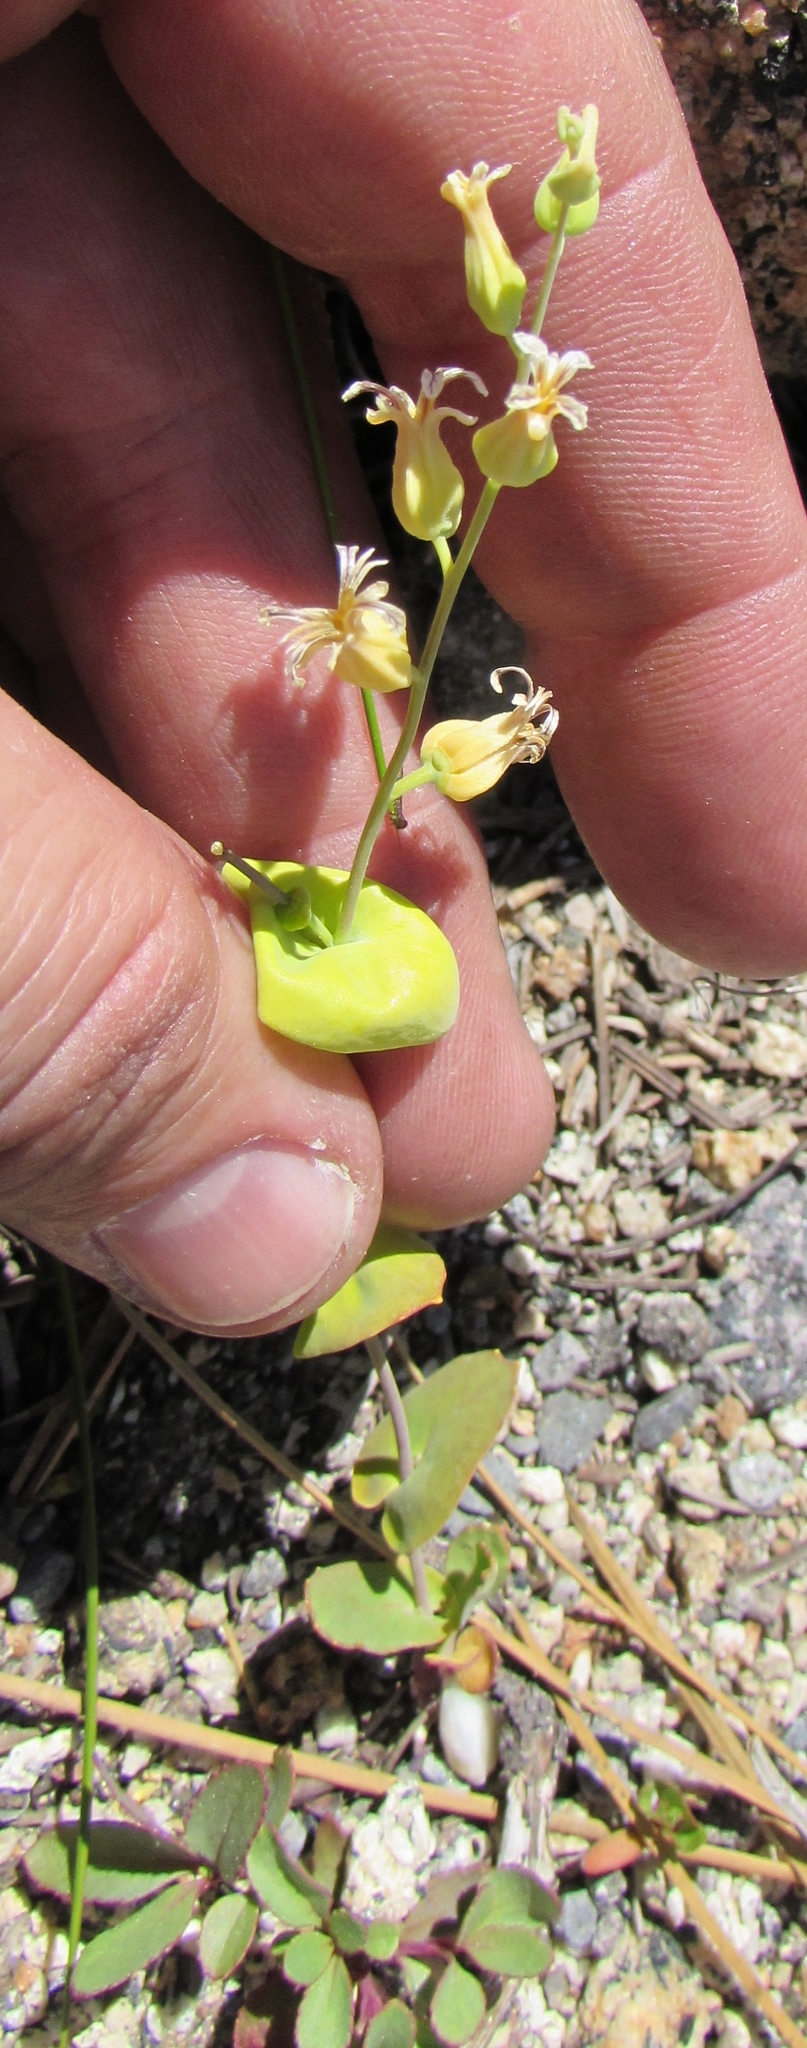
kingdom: Plantae
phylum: Tracheophyta
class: Magnoliopsida
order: Brassicales
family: Brassicaceae
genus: Streptanthus
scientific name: Streptanthus tortuosus
